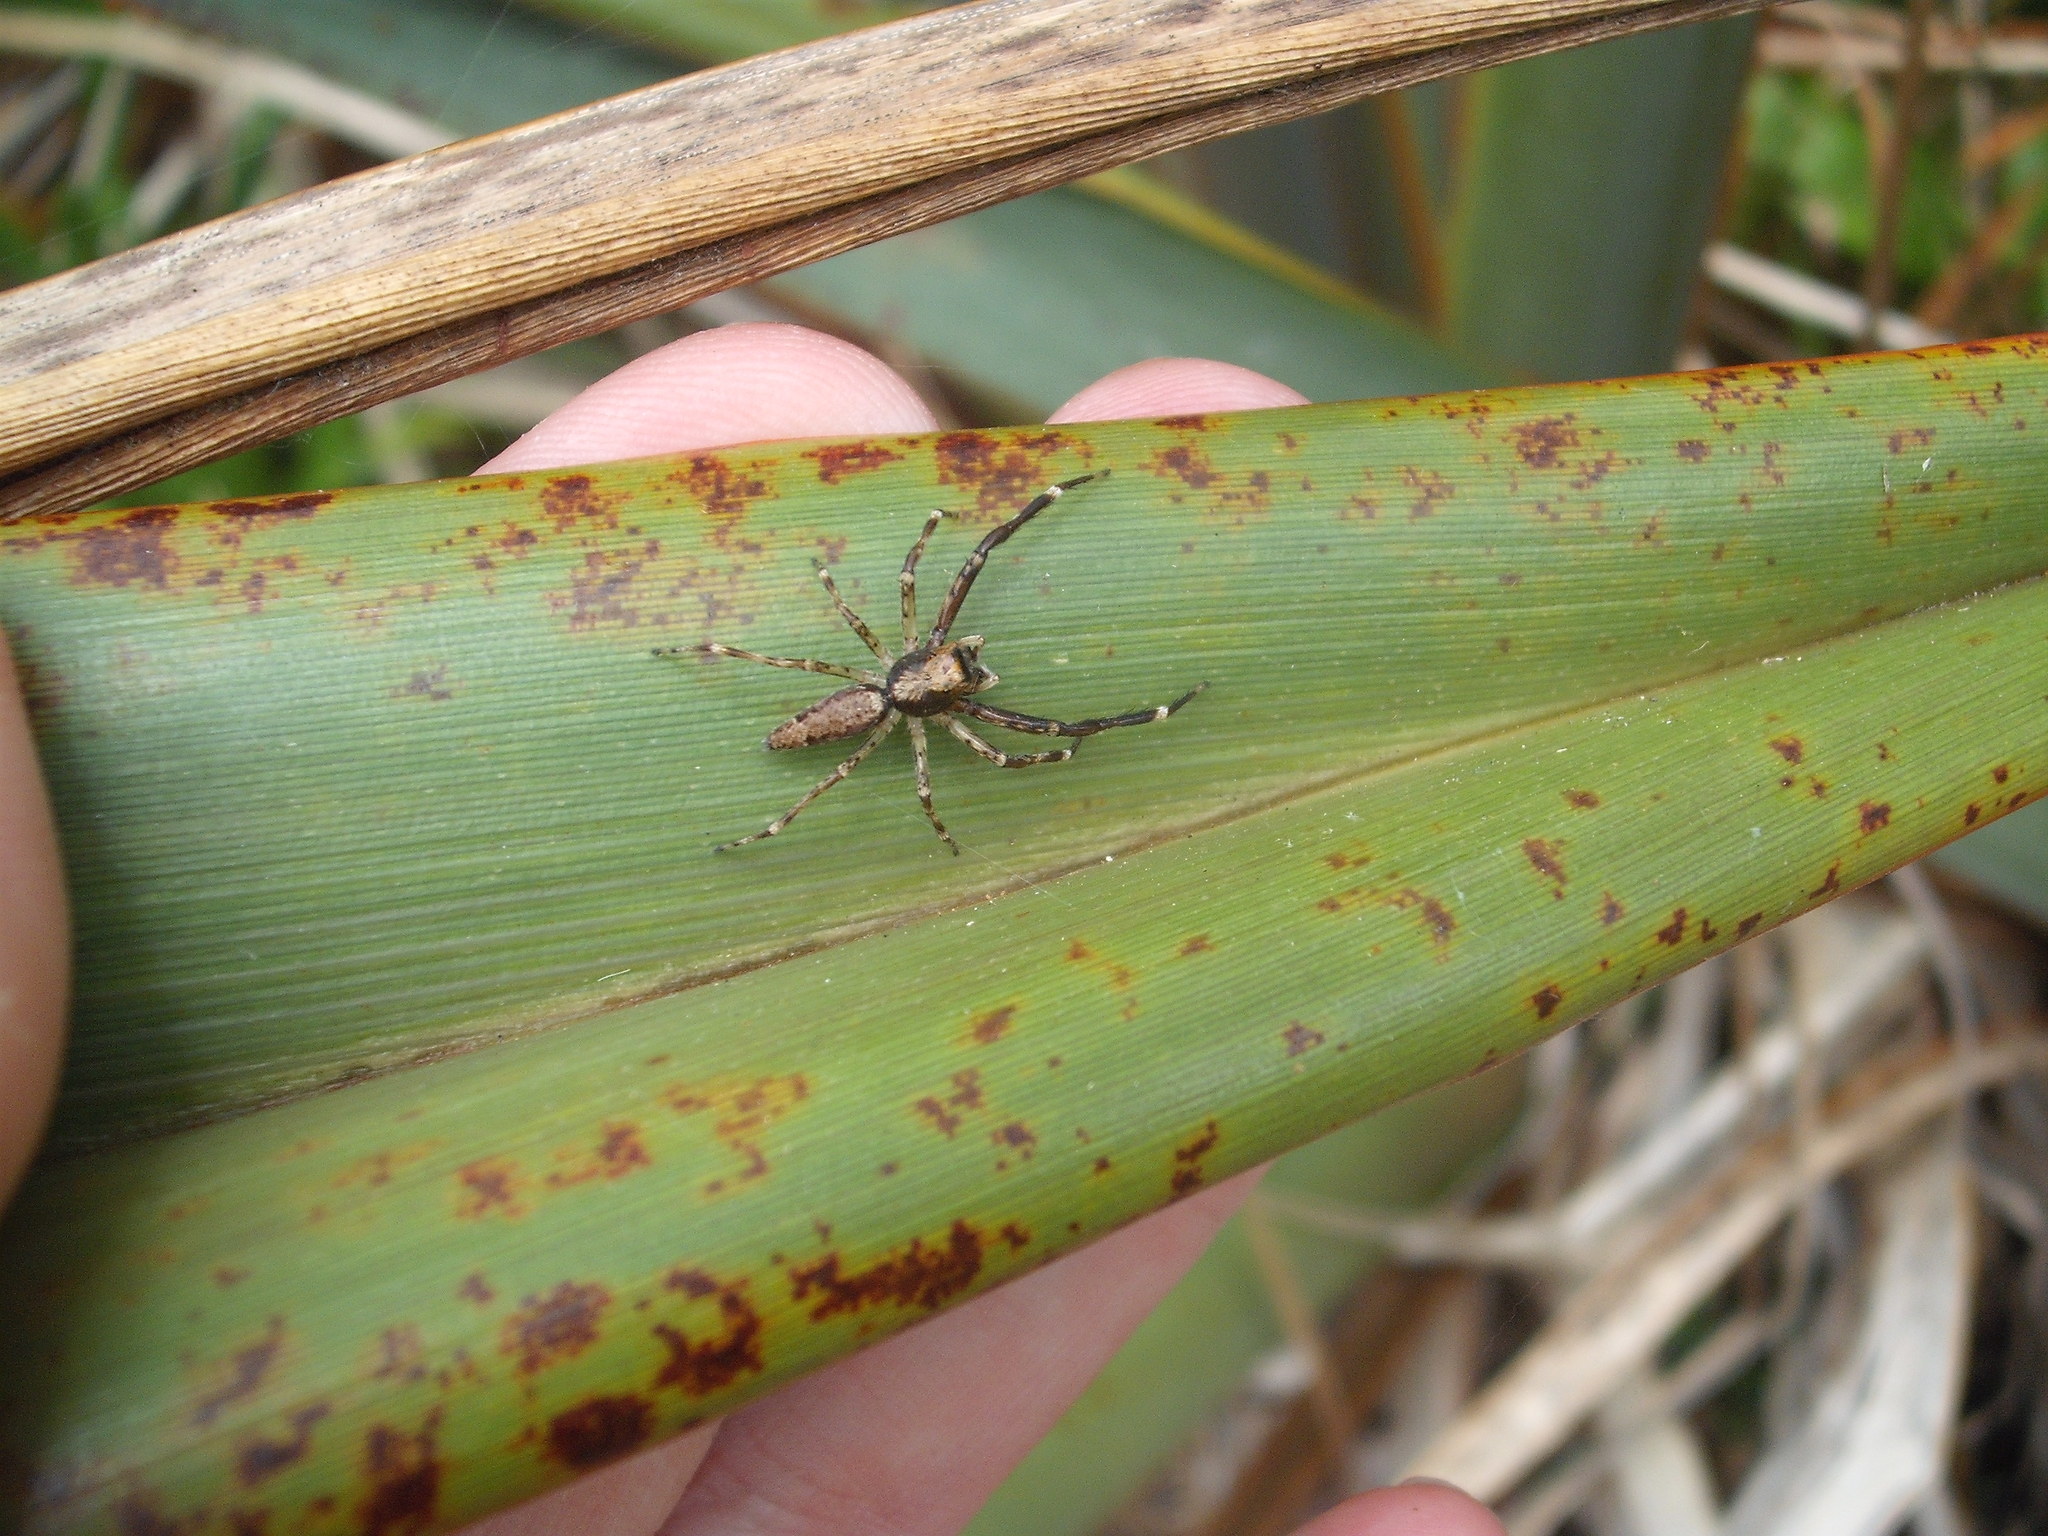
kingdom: Animalia
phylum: Arthropoda
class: Arachnida
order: Araneae
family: Salticidae
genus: Helpis
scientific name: Helpis minitabunda
